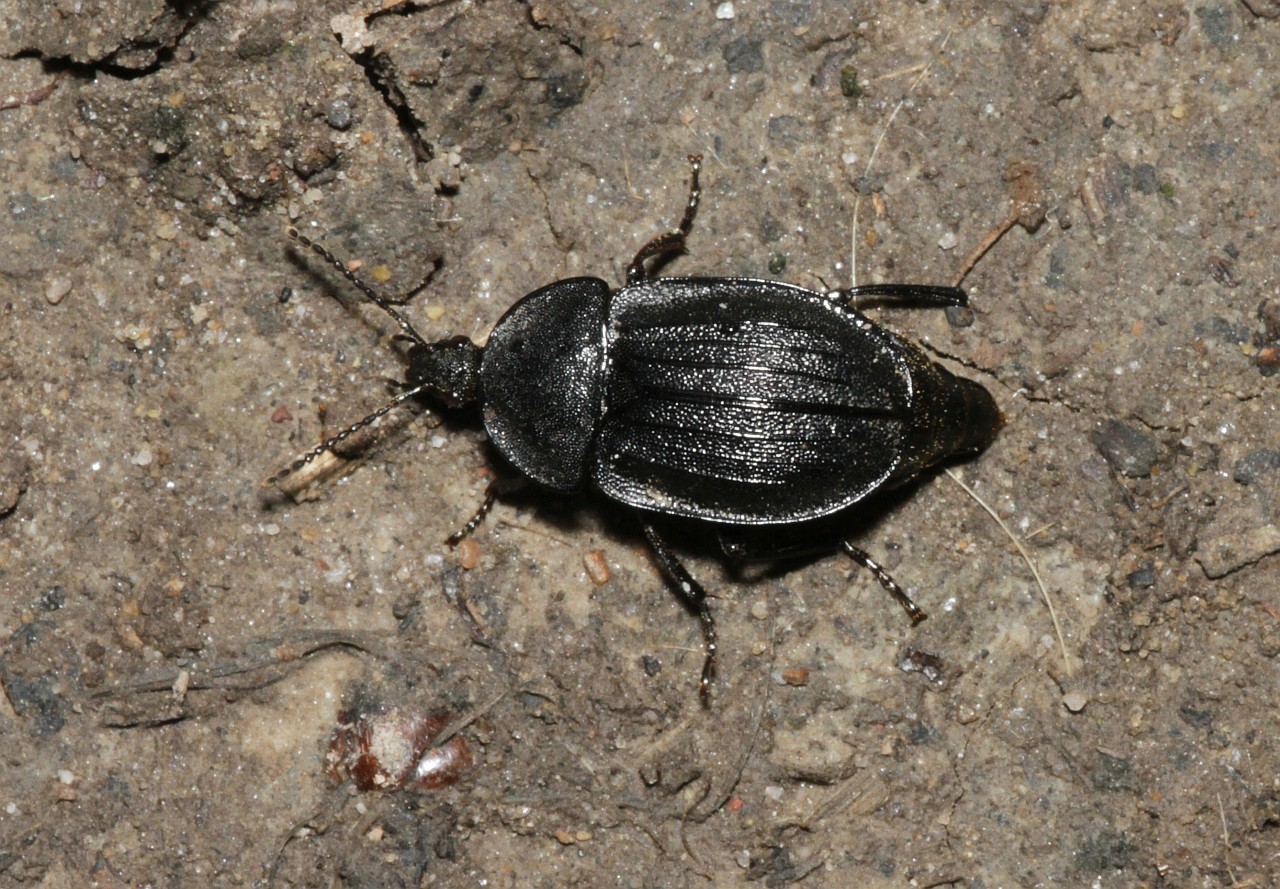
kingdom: Animalia
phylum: Arthropoda
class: Insecta
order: Coleoptera
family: Staphylinidae
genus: Silpha
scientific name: Silpha atrata
